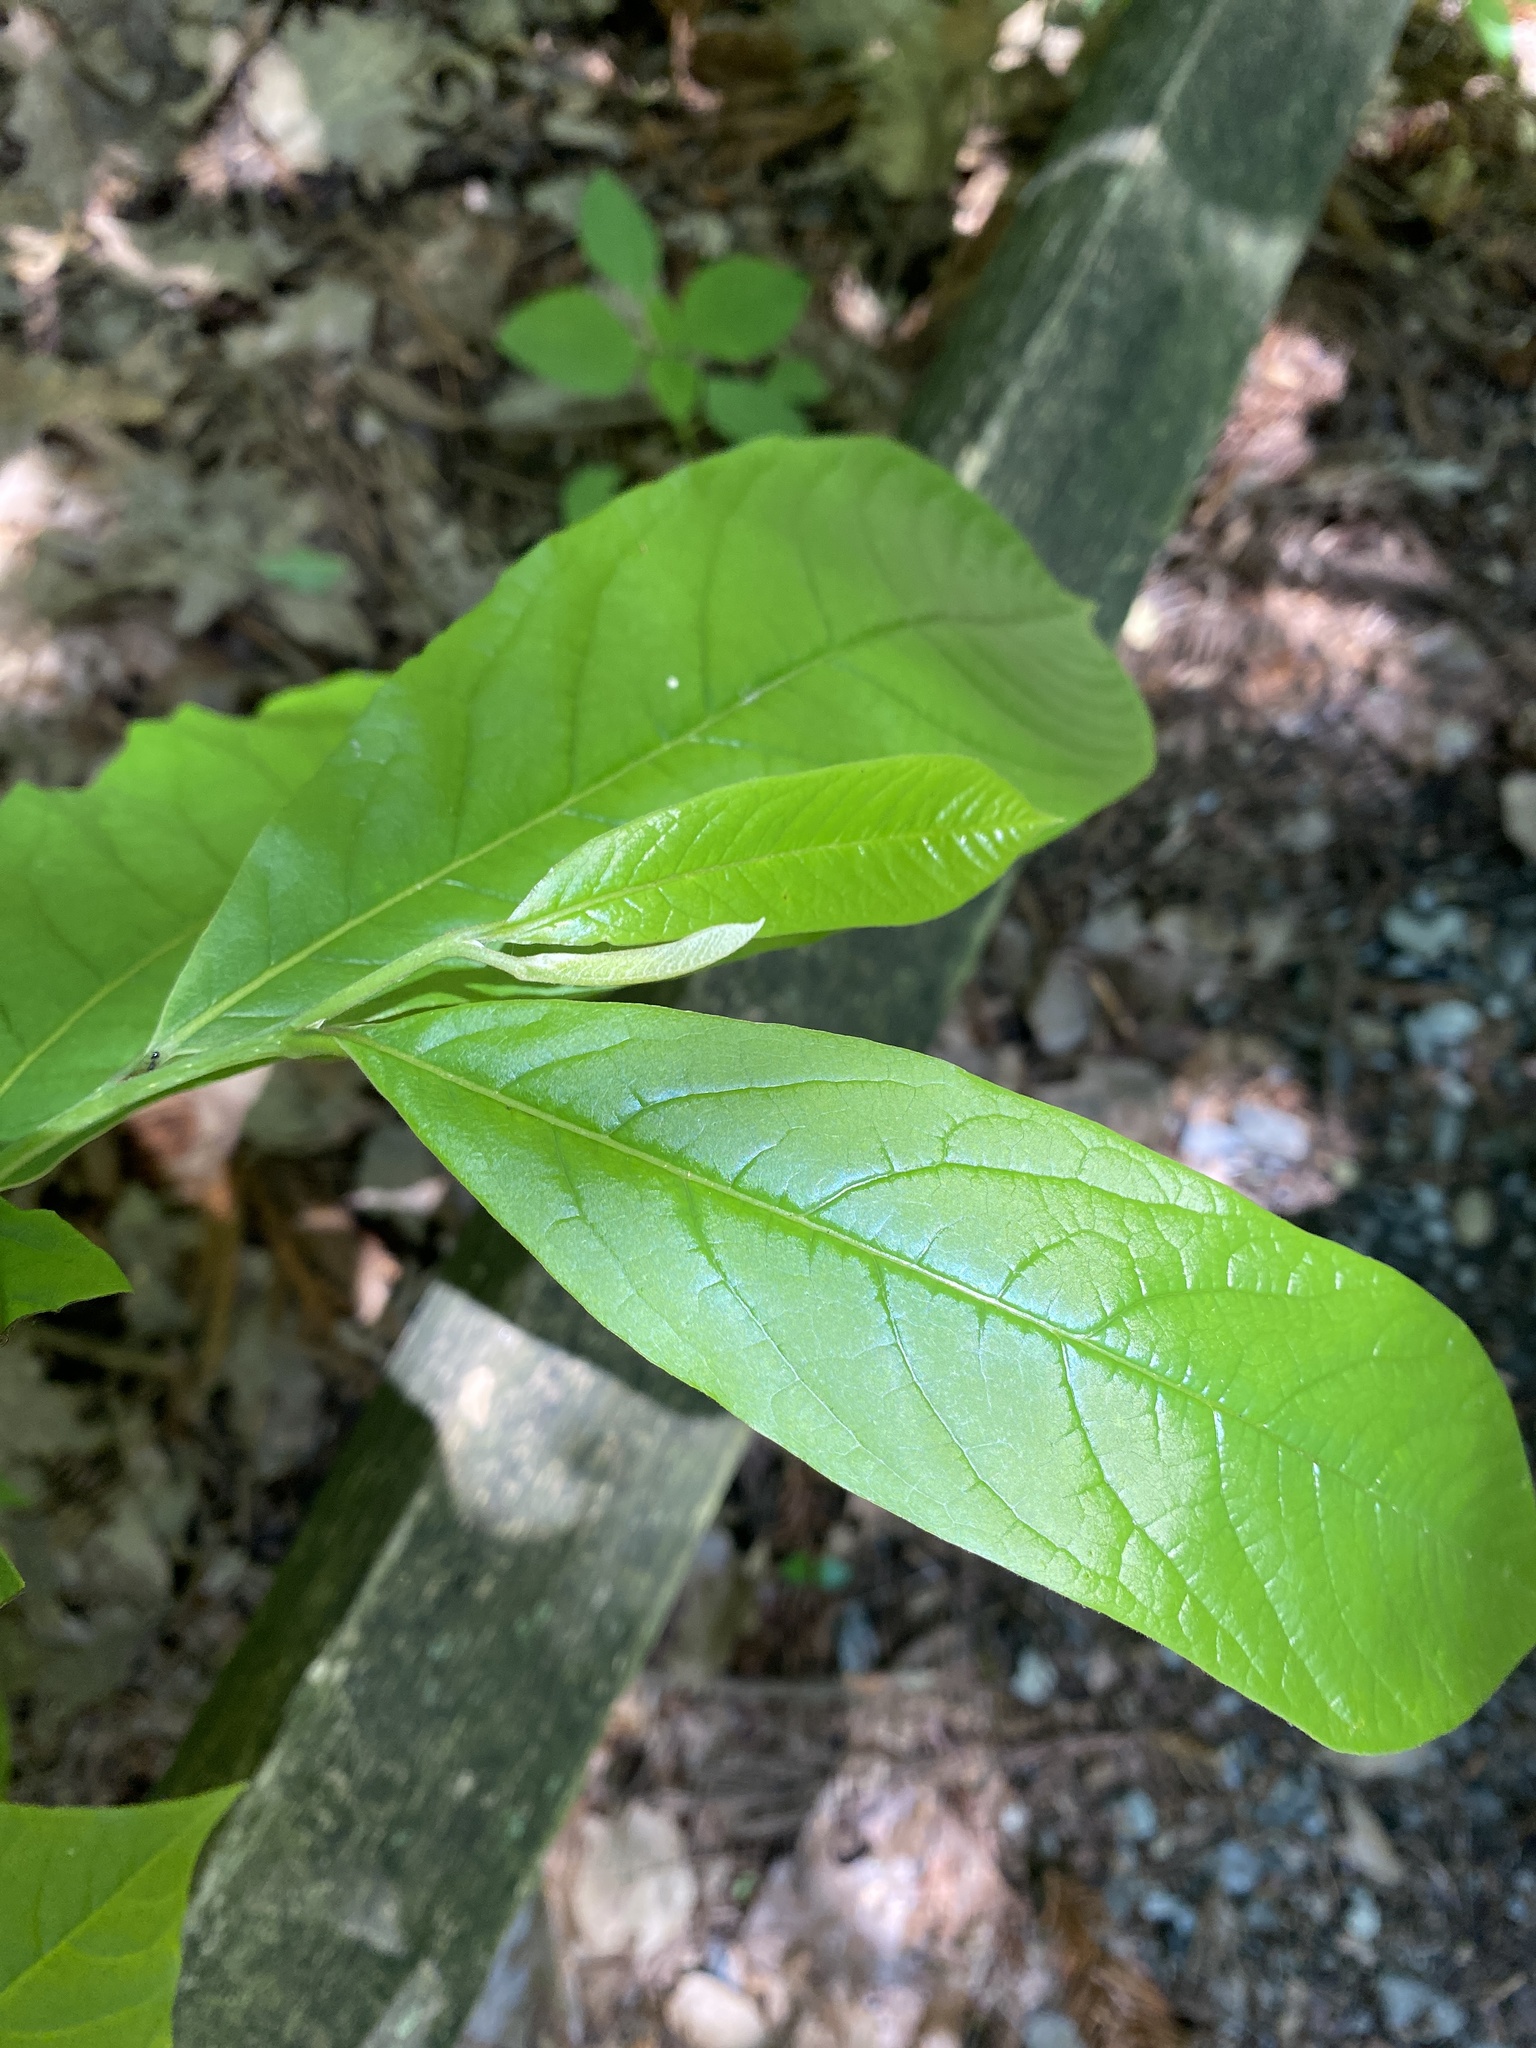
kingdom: Plantae
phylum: Tracheophyta
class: Magnoliopsida
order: Magnoliales
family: Annonaceae
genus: Asimina
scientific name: Asimina triloba
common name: Dog-banana
